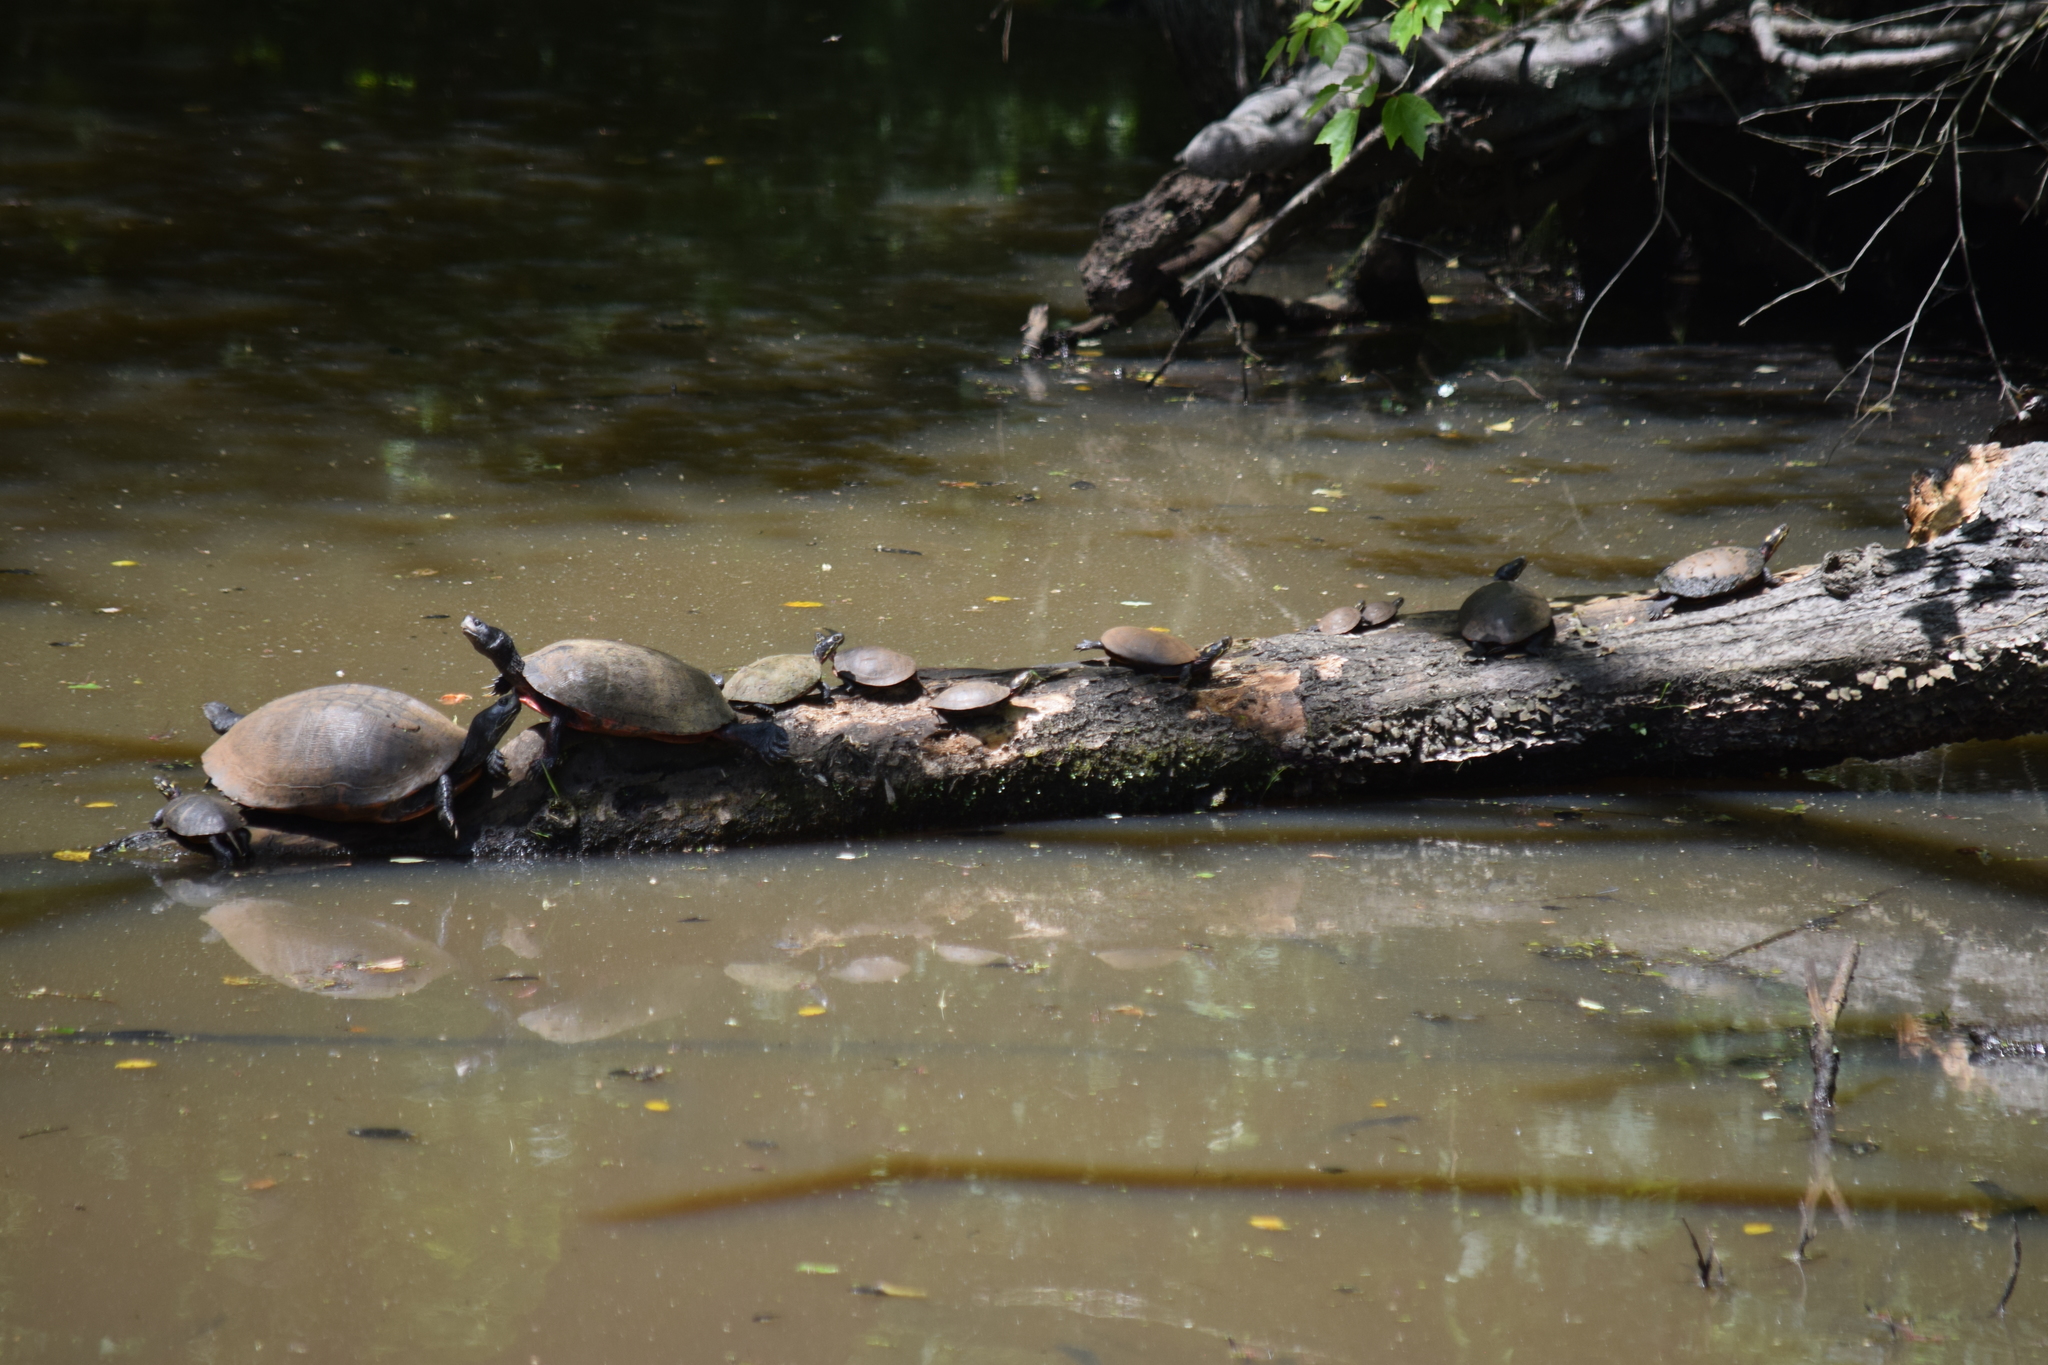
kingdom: Animalia
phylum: Chordata
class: Testudines
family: Emydidae
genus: Pseudemys
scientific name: Pseudemys rubriventris
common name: American red-bellied turtle
